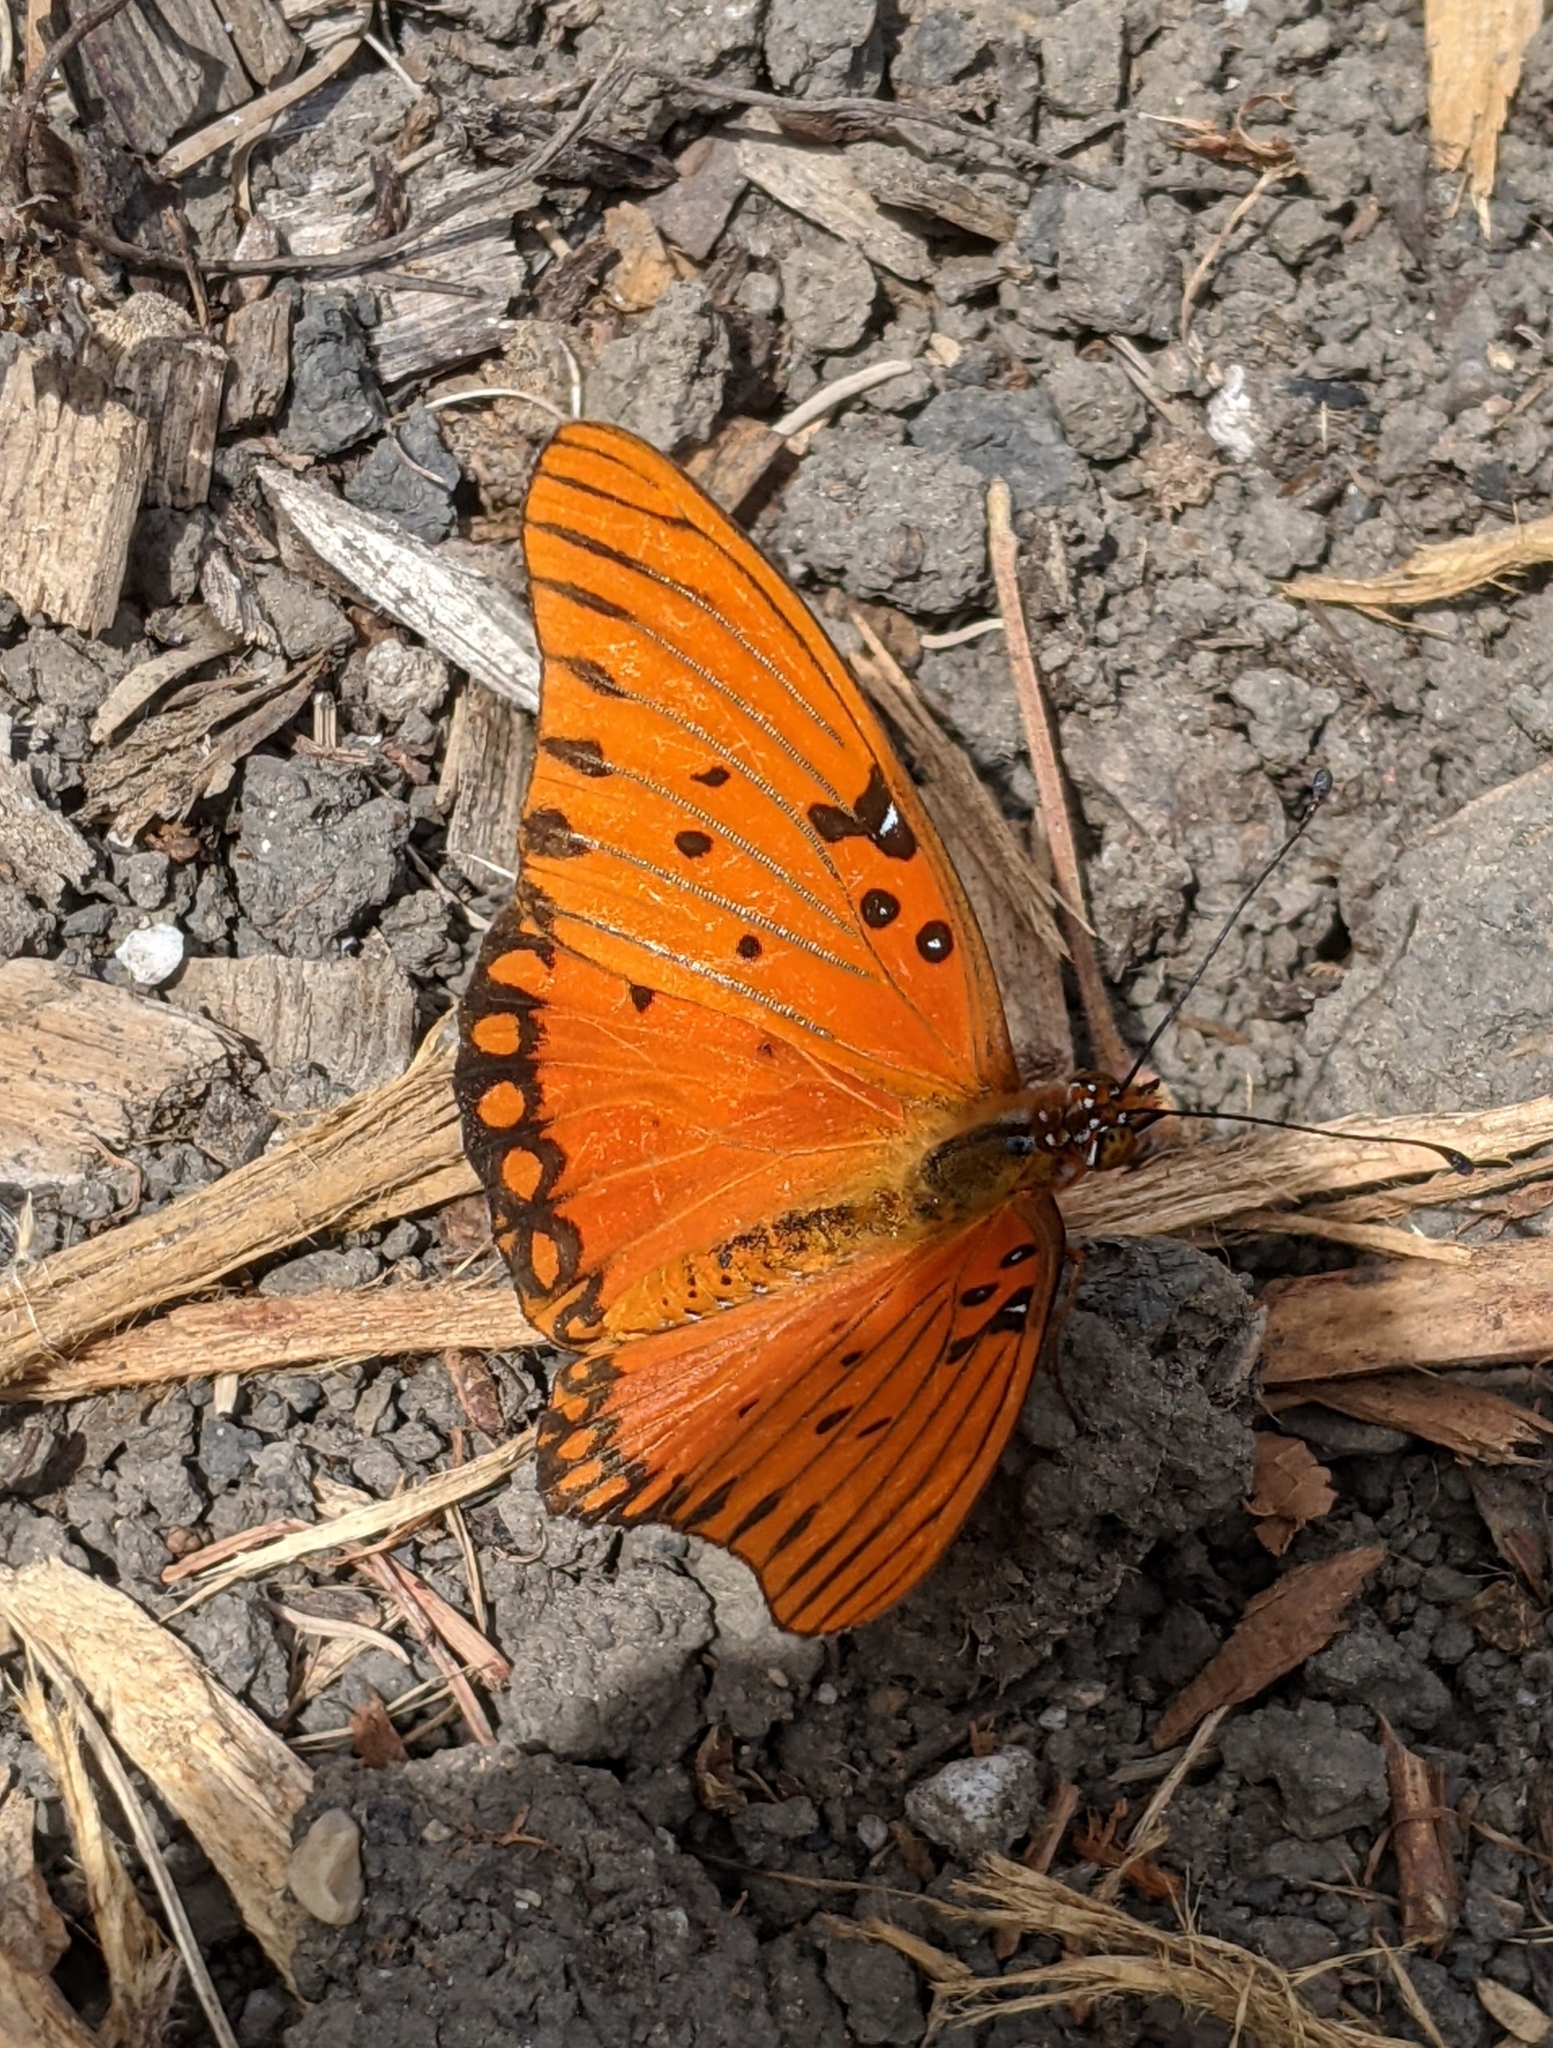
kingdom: Animalia
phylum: Arthropoda
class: Insecta
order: Lepidoptera
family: Nymphalidae
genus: Dione
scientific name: Dione vanillae
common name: Gulf fritillary
